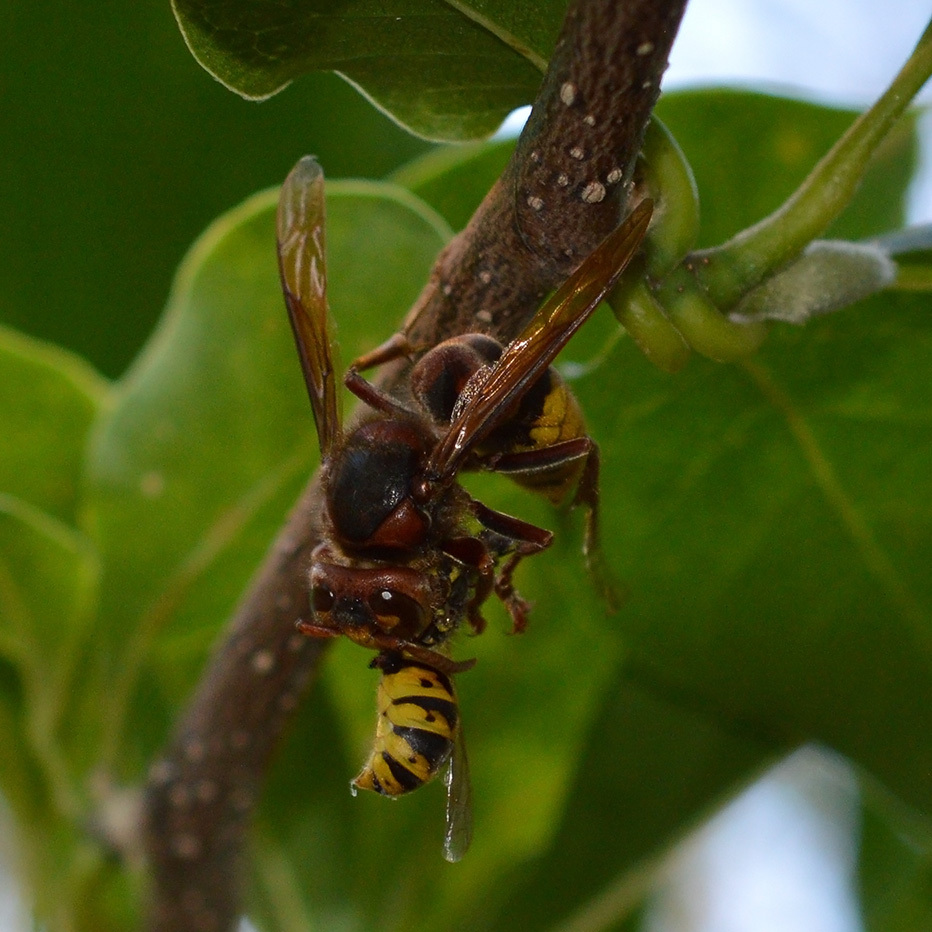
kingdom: Animalia
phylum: Arthropoda
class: Insecta
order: Hymenoptera
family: Vespidae
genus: Vespa
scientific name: Vespa crabro
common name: Hornet
